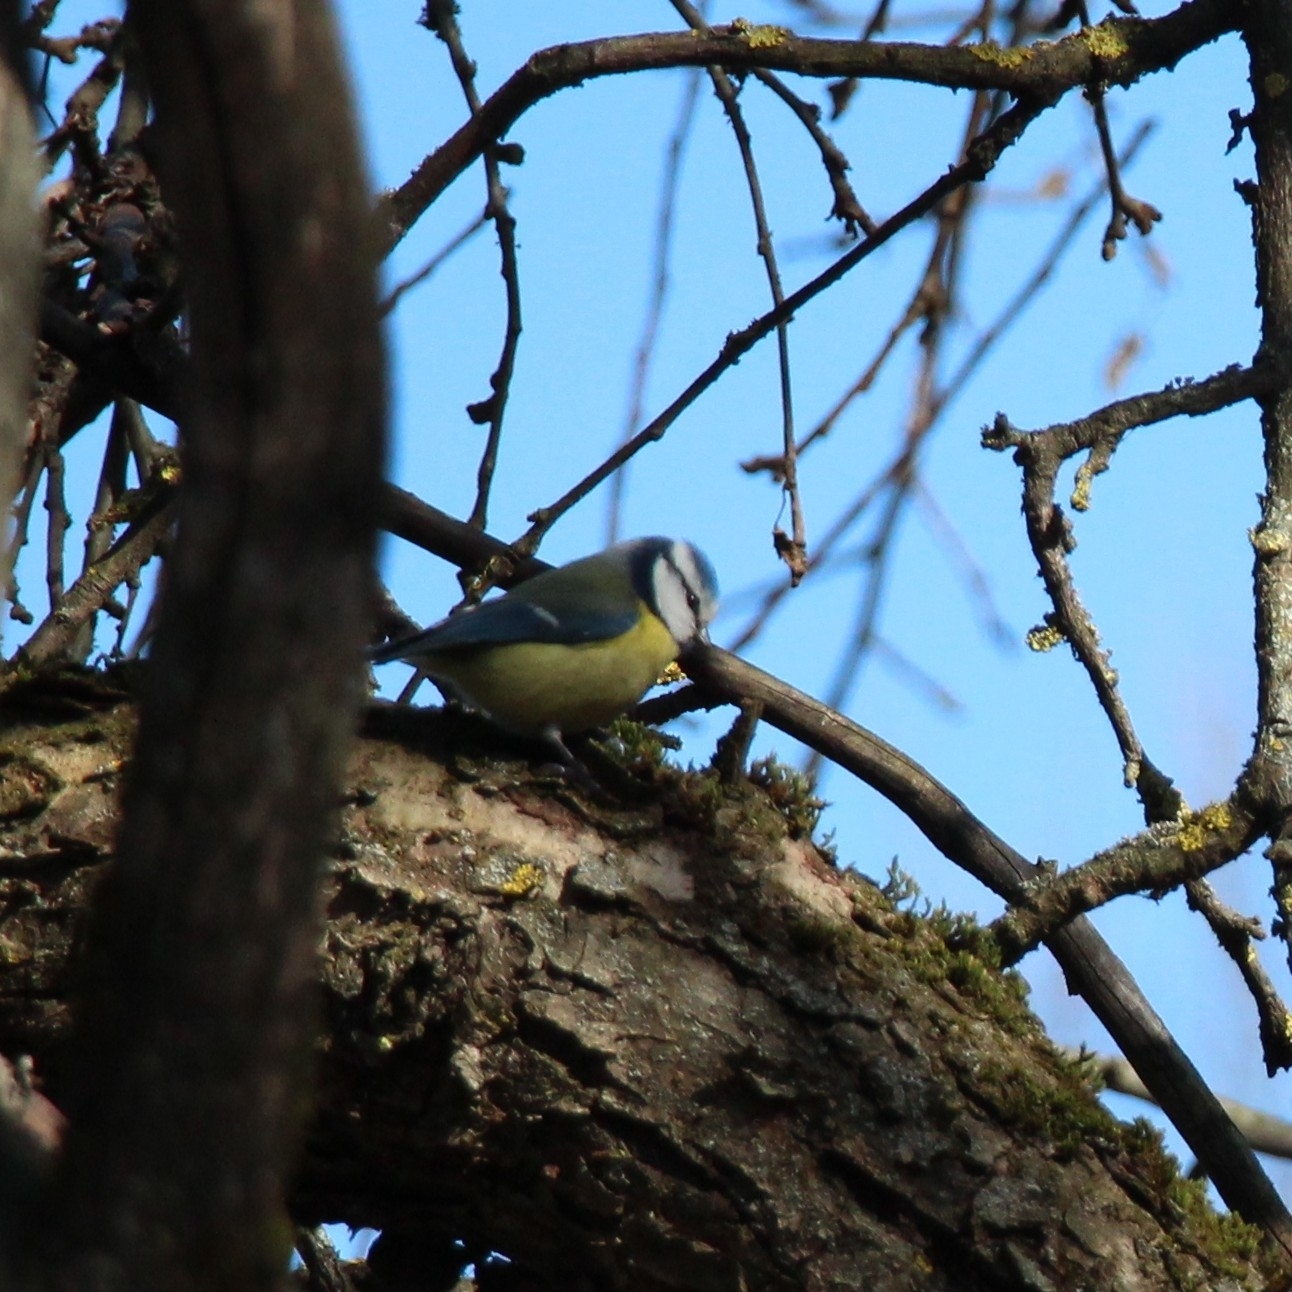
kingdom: Animalia
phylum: Chordata
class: Aves
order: Passeriformes
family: Paridae
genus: Cyanistes
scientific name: Cyanistes caeruleus
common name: Eurasian blue tit
